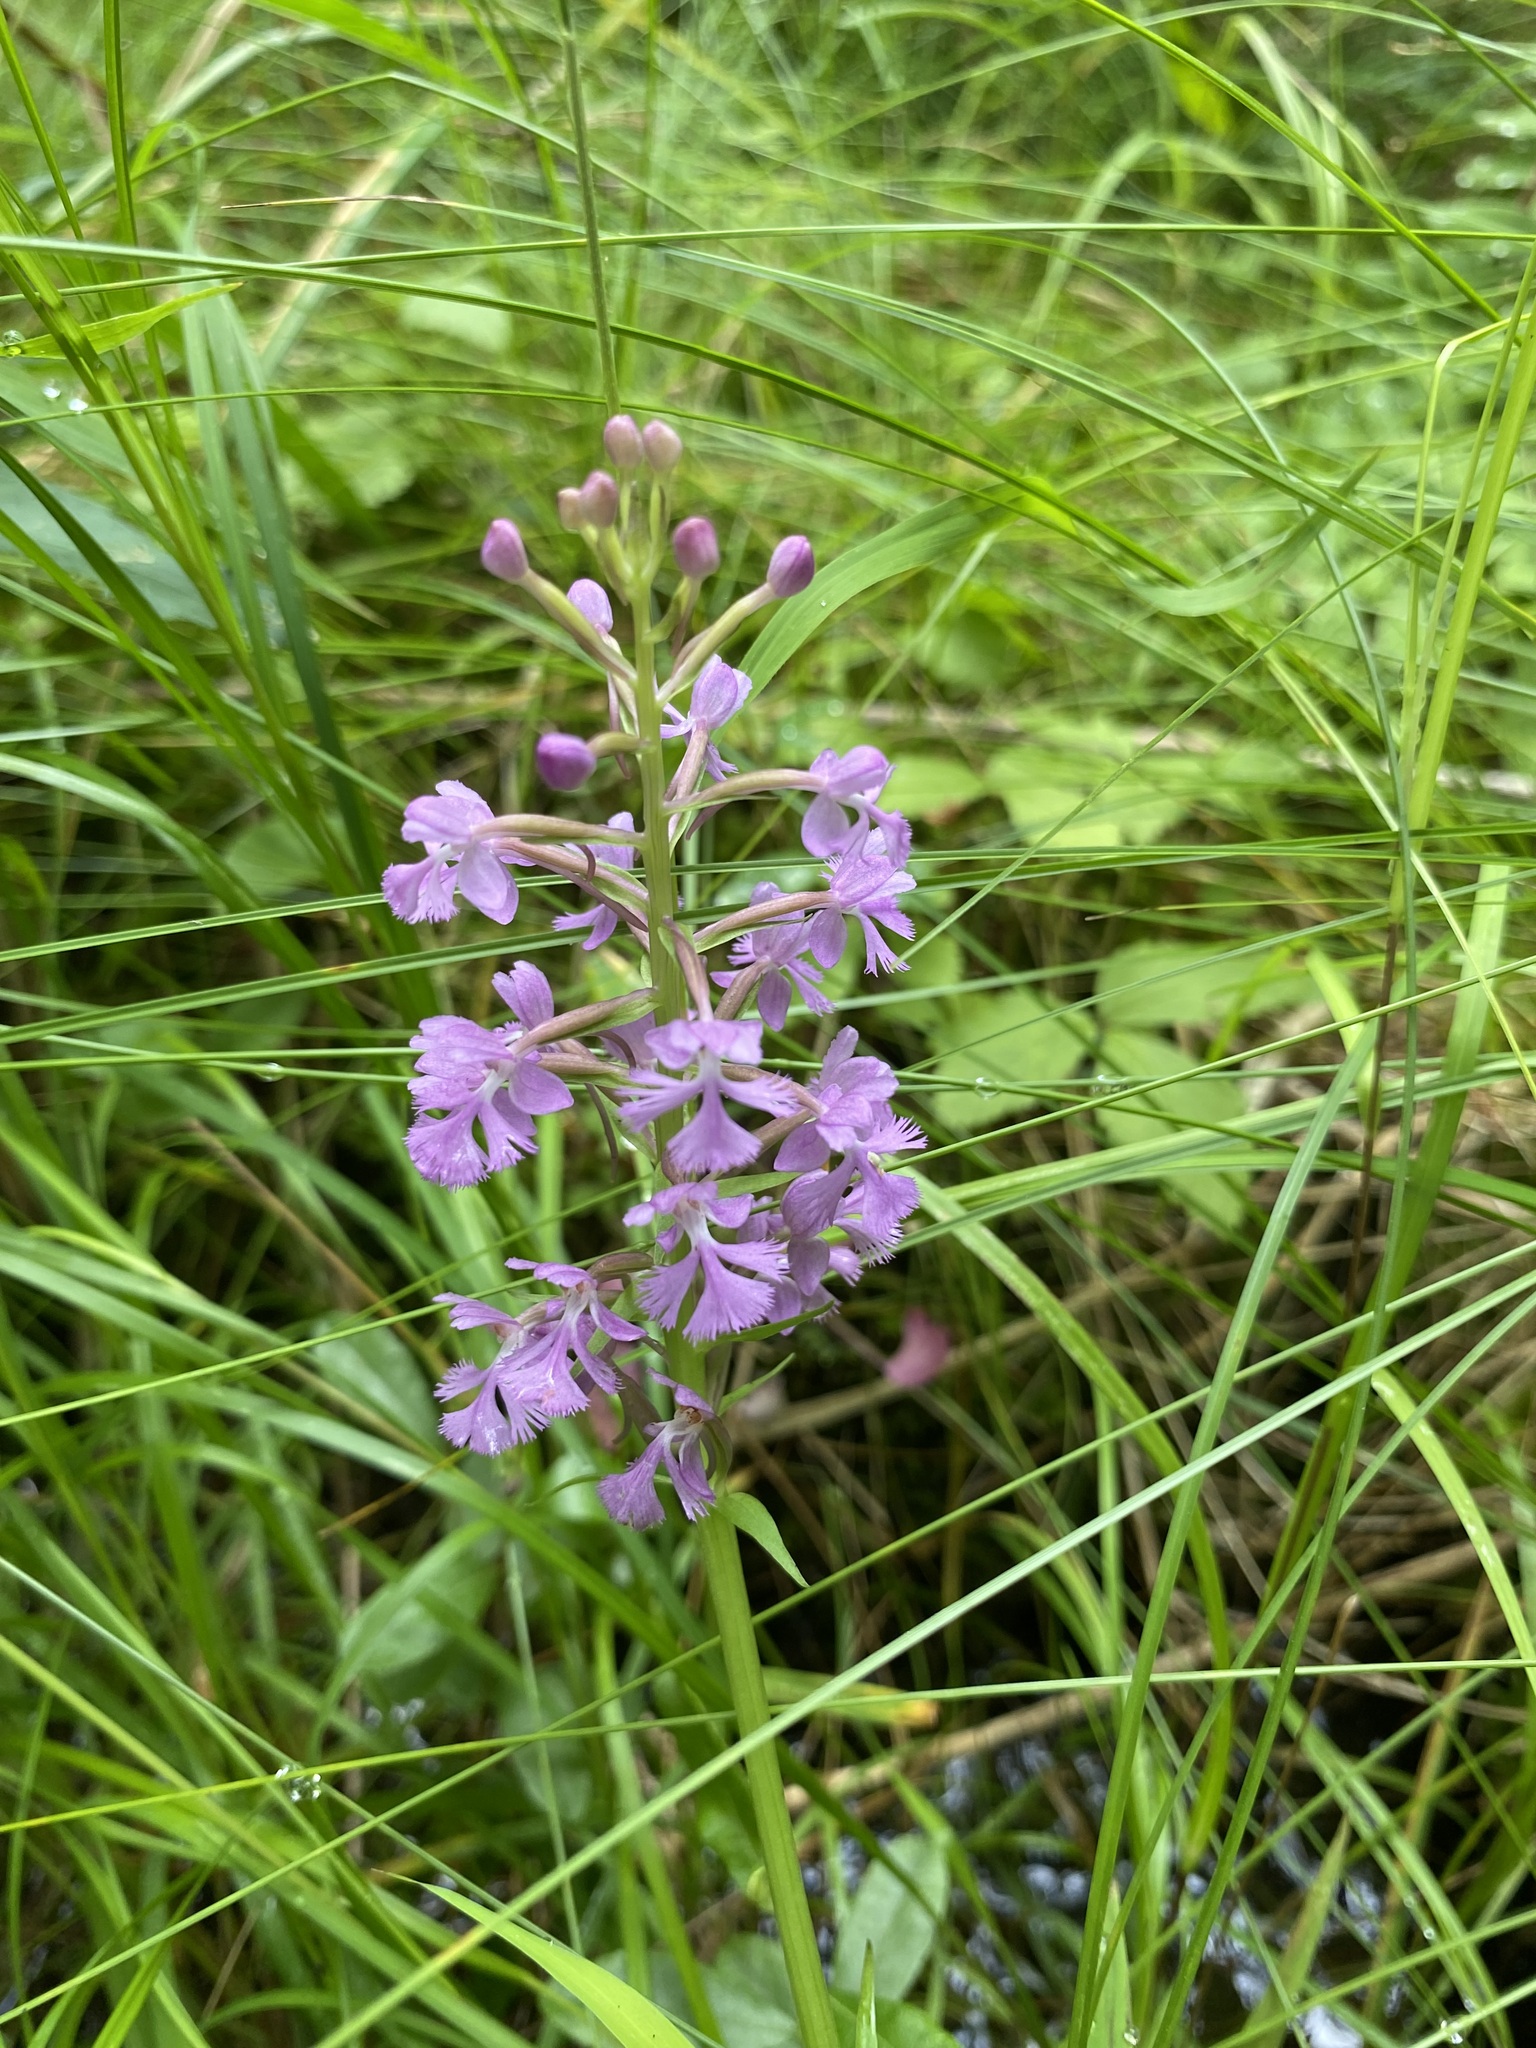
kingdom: Plantae
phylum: Tracheophyta
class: Liliopsida
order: Asparagales
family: Orchidaceae
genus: Platanthera
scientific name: Platanthera psycodes
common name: Lesser purple fringed orchid
